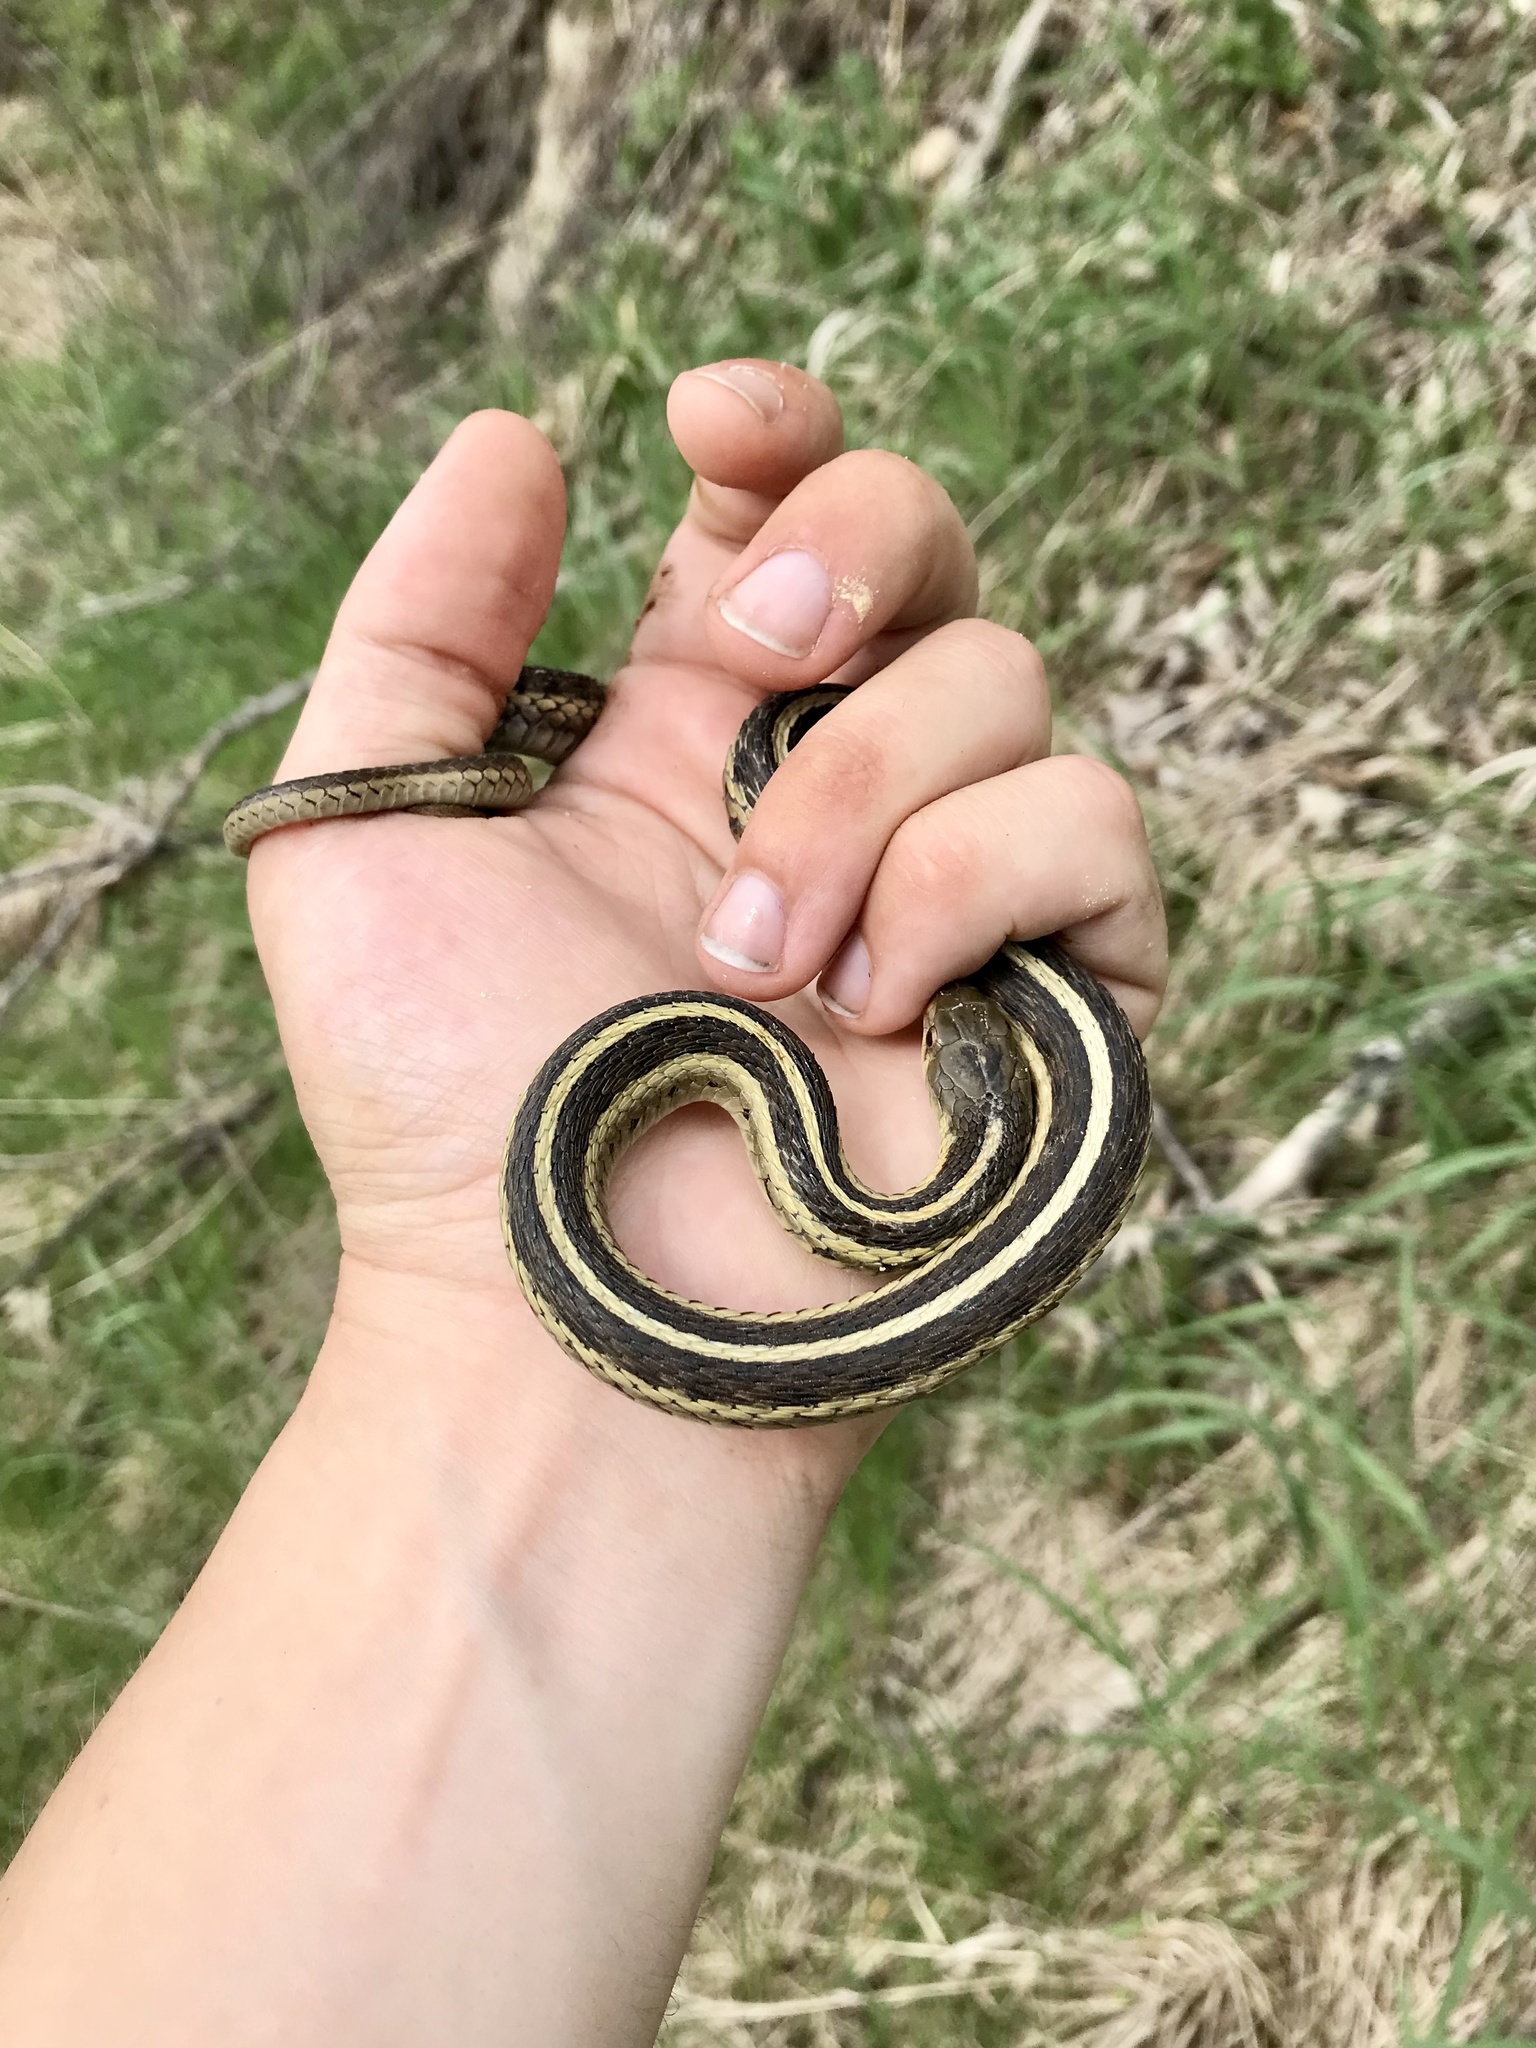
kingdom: Animalia
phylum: Chordata
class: Squamata
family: Colubridae
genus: Thamnophis
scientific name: Thamnophis sirtalis
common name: Common garter snake
